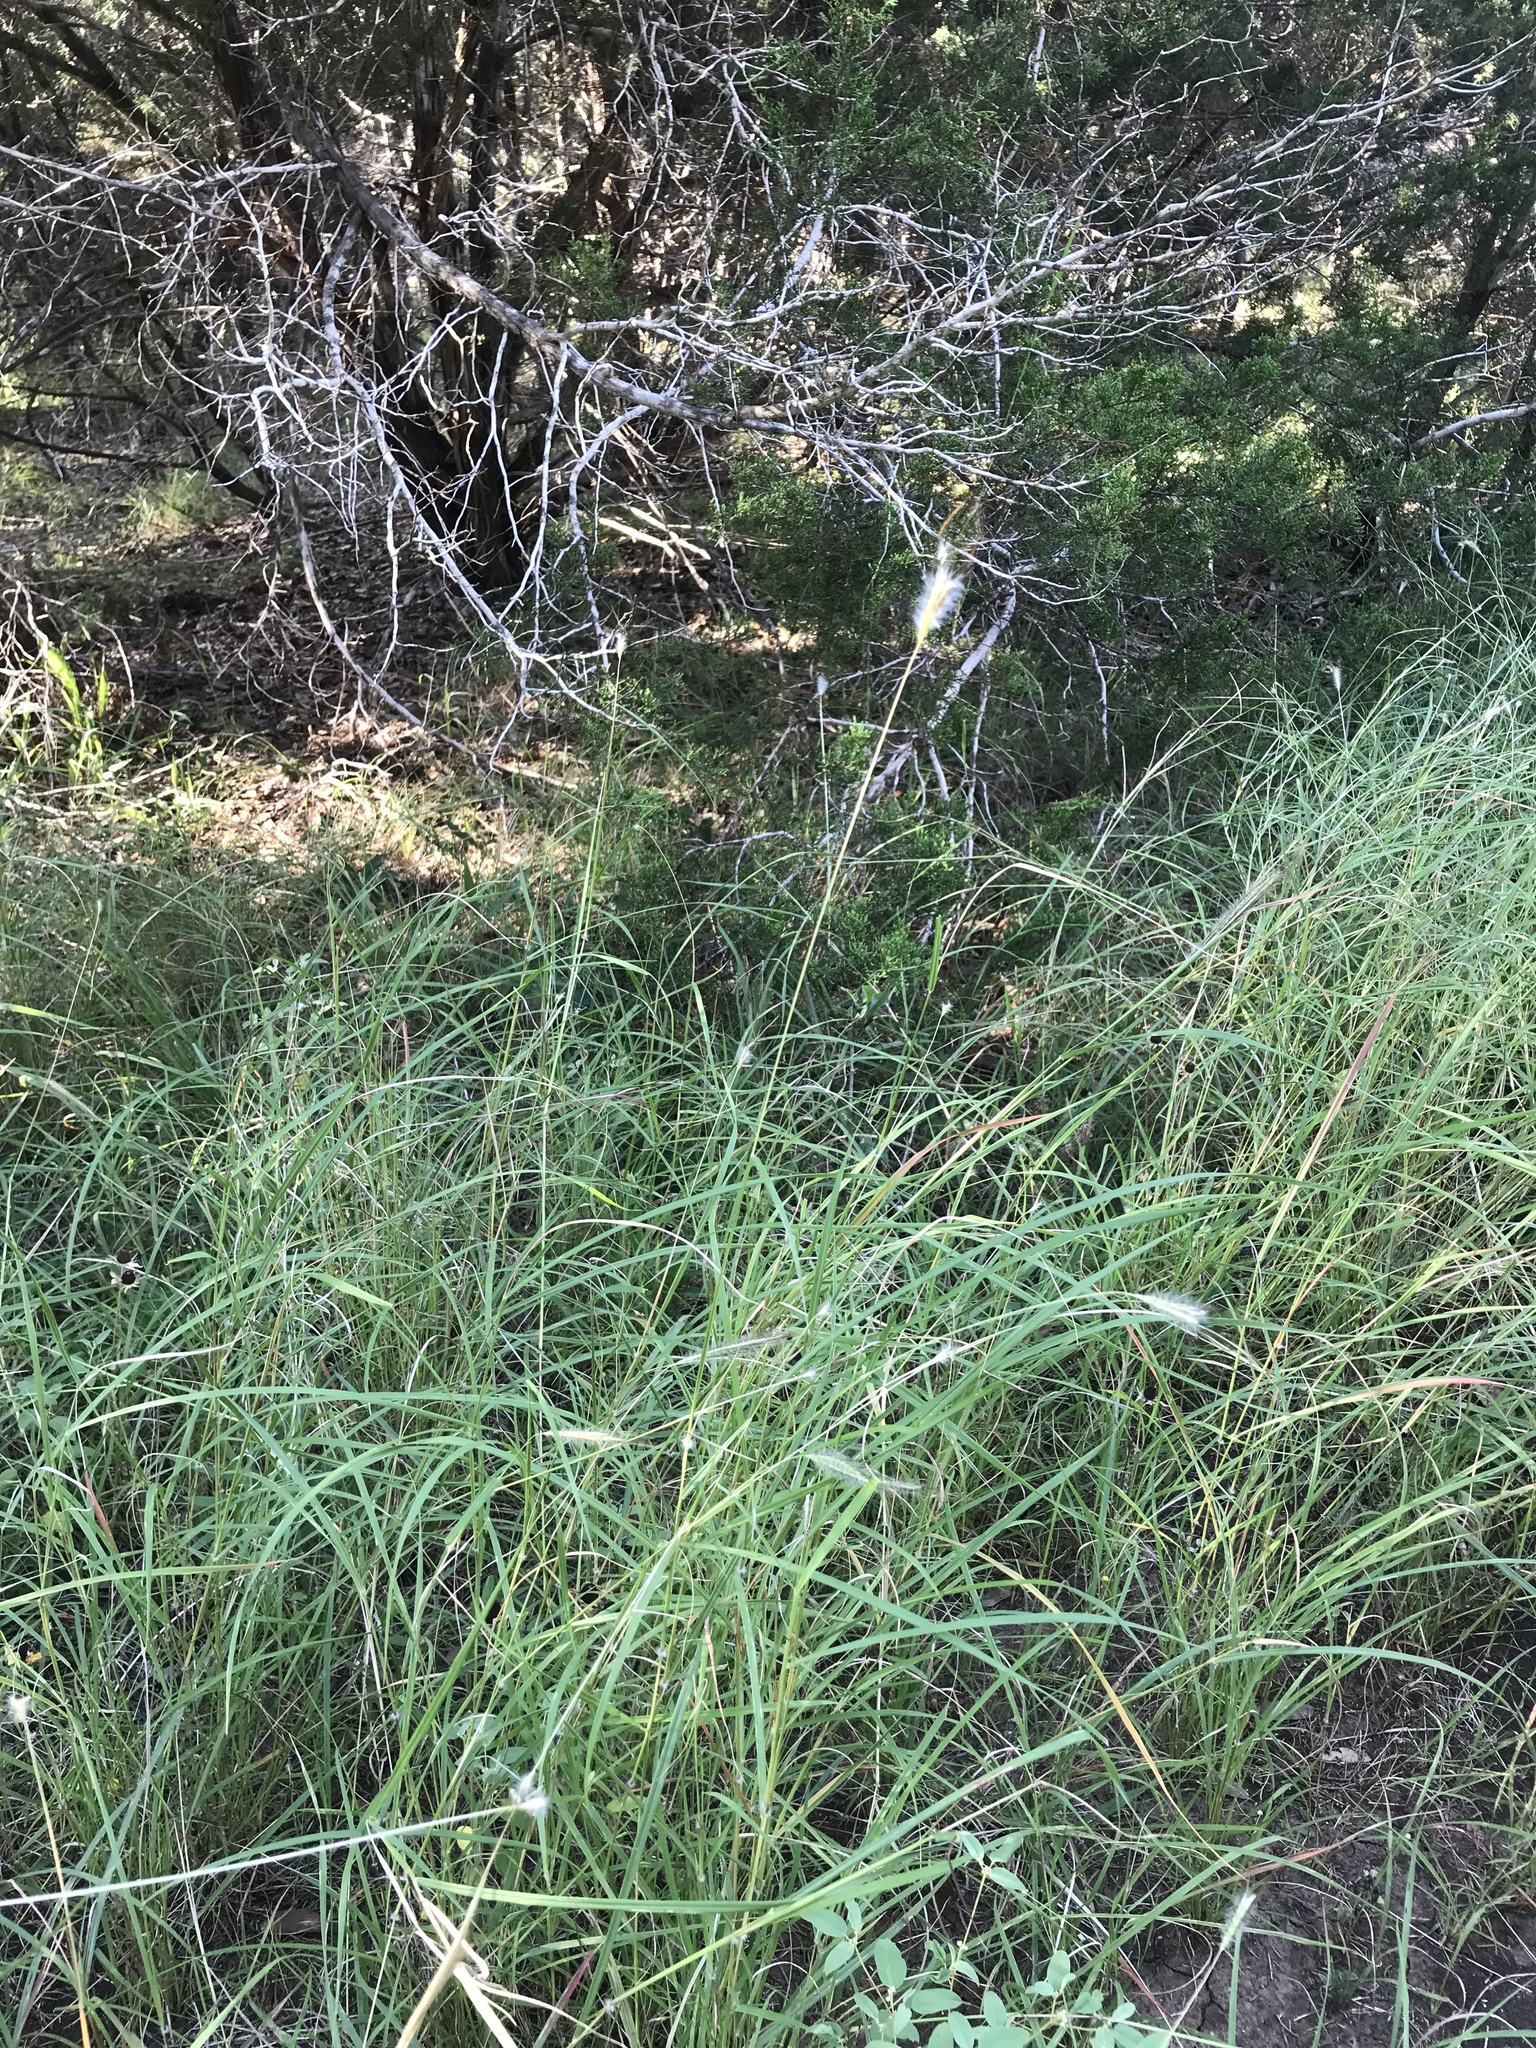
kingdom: Plantae
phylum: Tracheophyta
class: Liliopsida
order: Poales
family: Poaceae
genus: Dichanthium
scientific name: Dichanthium sericeum
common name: Silky bluestem
